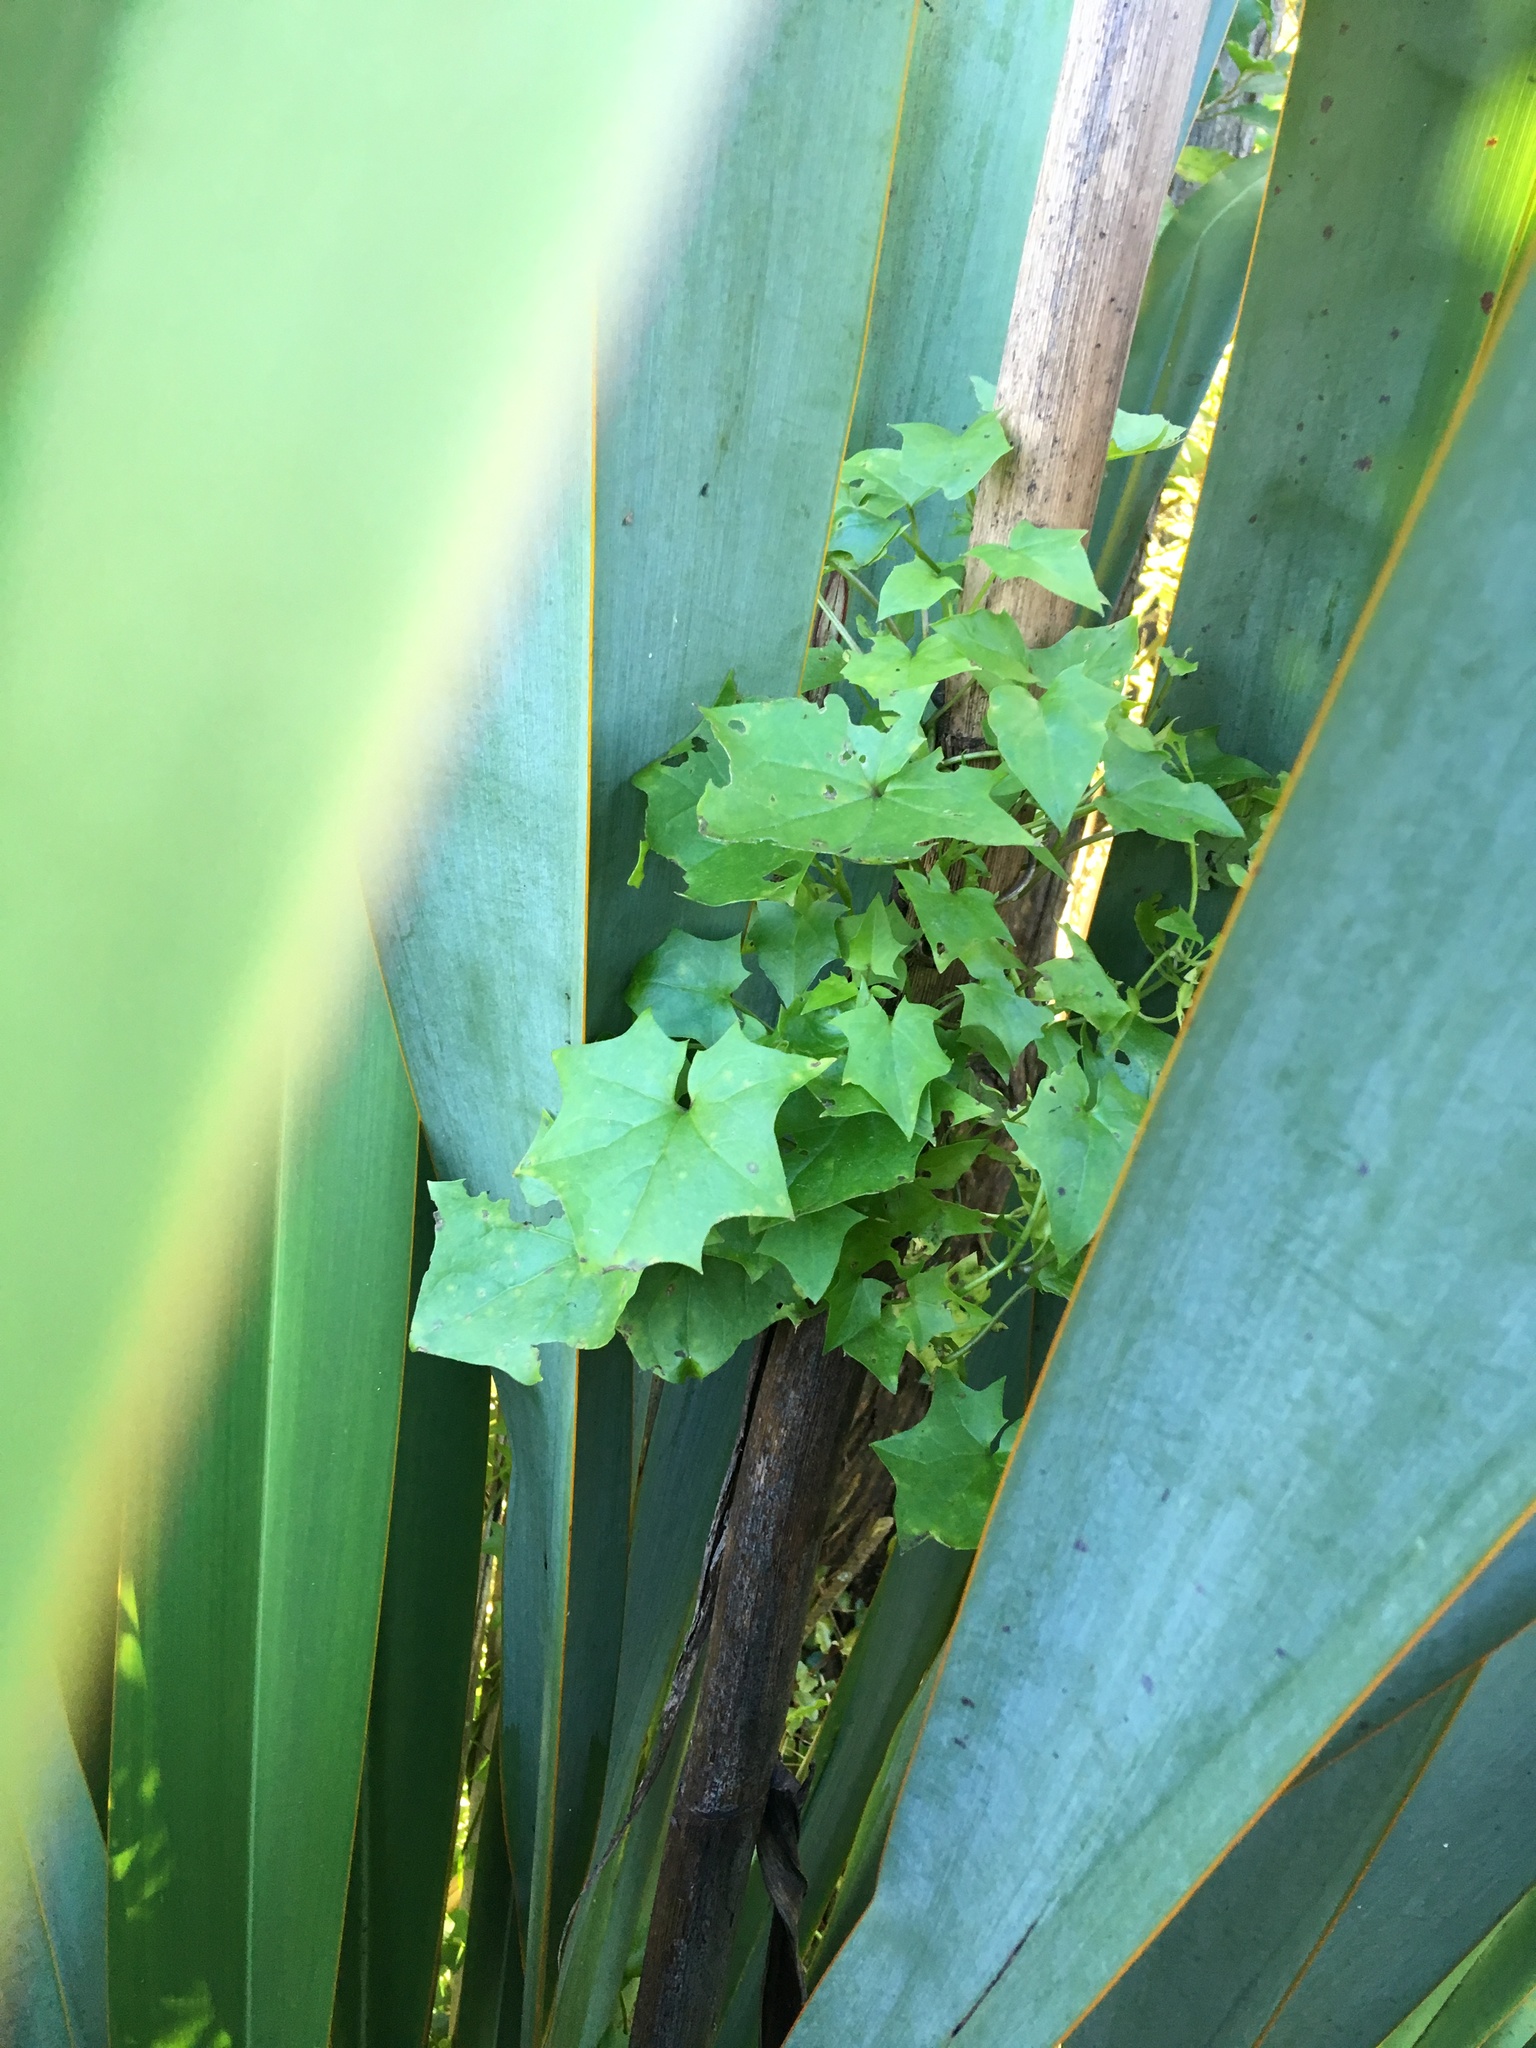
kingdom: Plantae
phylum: Tracheophyta
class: Magnoliopsida
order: Asterales
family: Asteraceae
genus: Delairea
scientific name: Delairea odorata
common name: Cape-ivy
